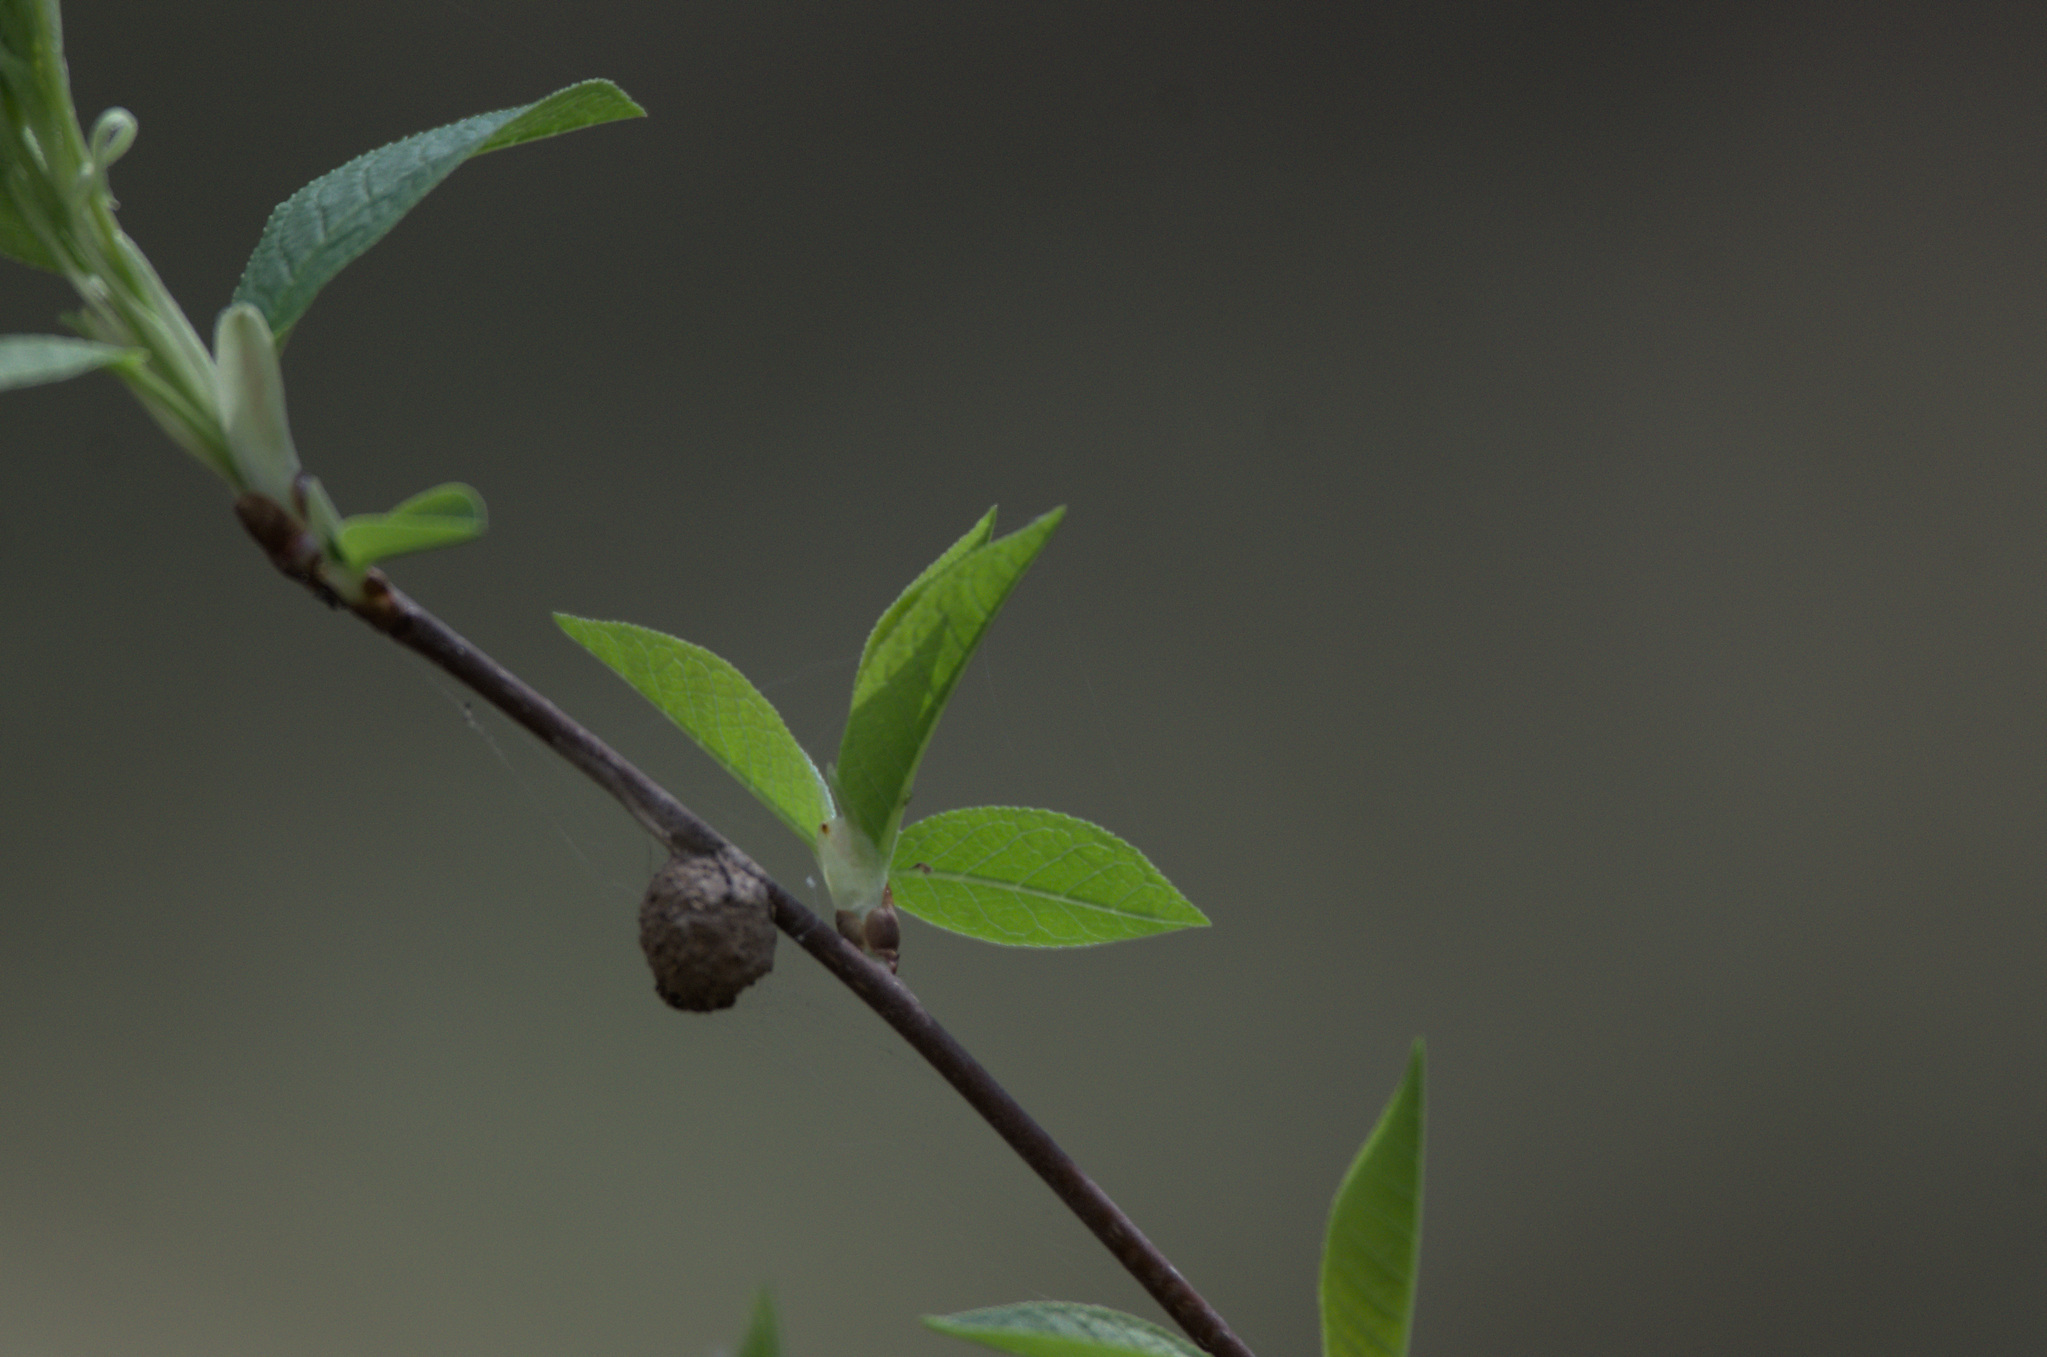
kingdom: Plantae
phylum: Tracheophyta
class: Magnoliopsida
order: Rosales
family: Rosaceae
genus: Prunus
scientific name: Prunus padus
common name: Bird cherry
